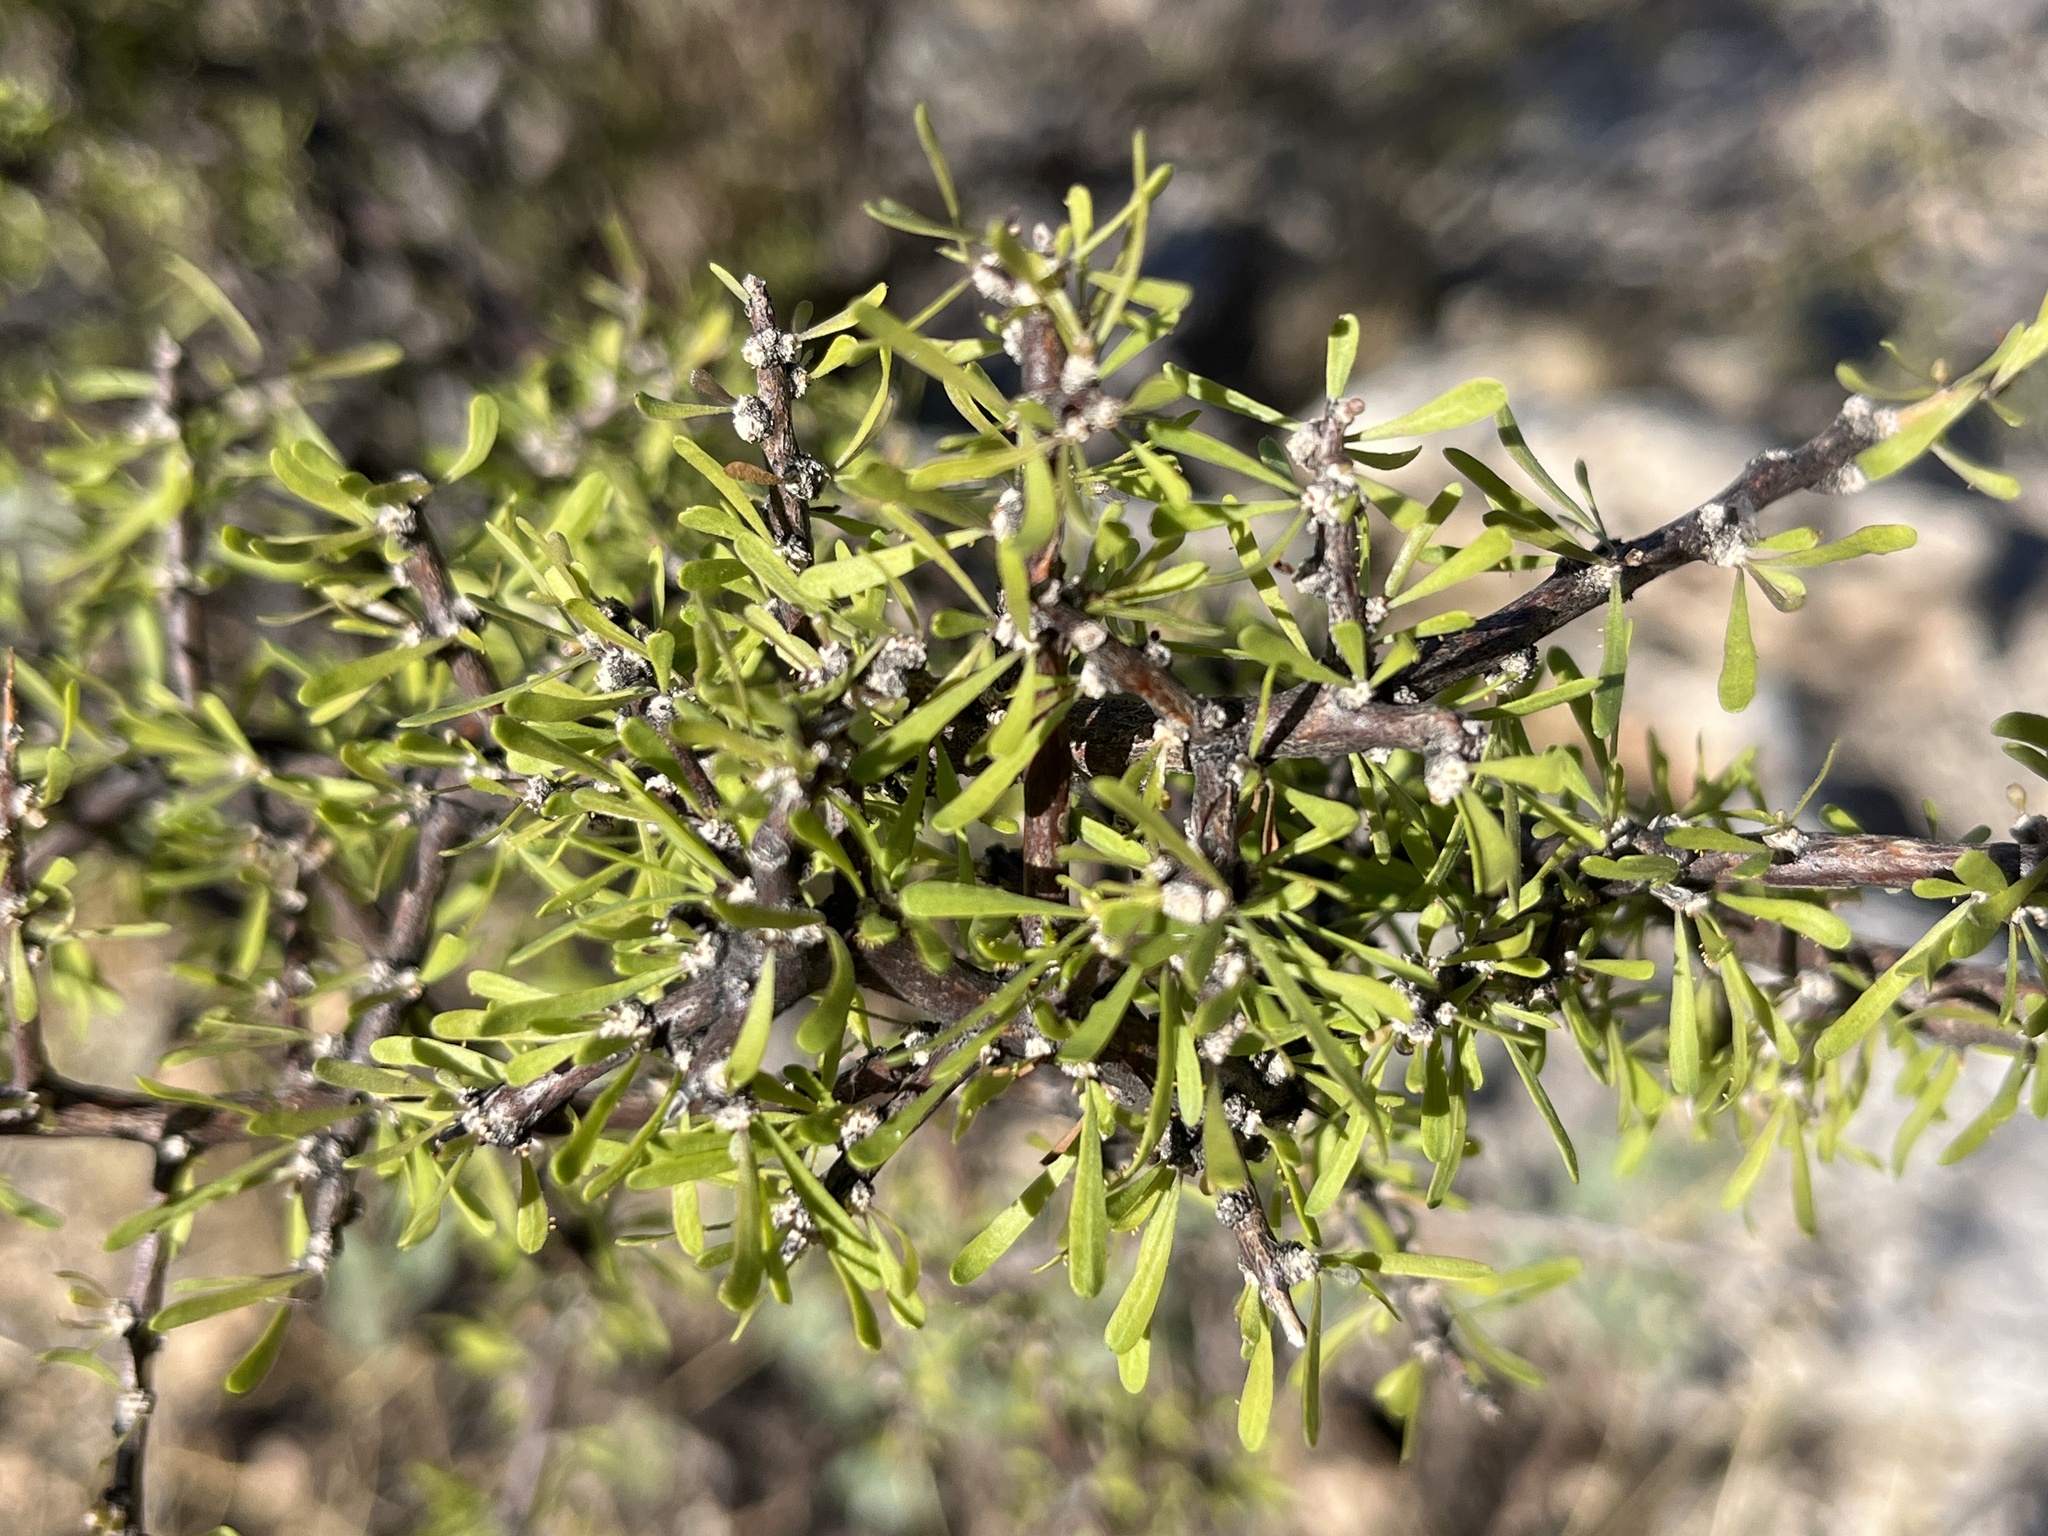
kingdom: Plantae
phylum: Tracheophyta
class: Magnoliopsida
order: Solanales
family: Solanaceae
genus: Lycium
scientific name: Lycium berlandieri
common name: Berlandier wolfberry
